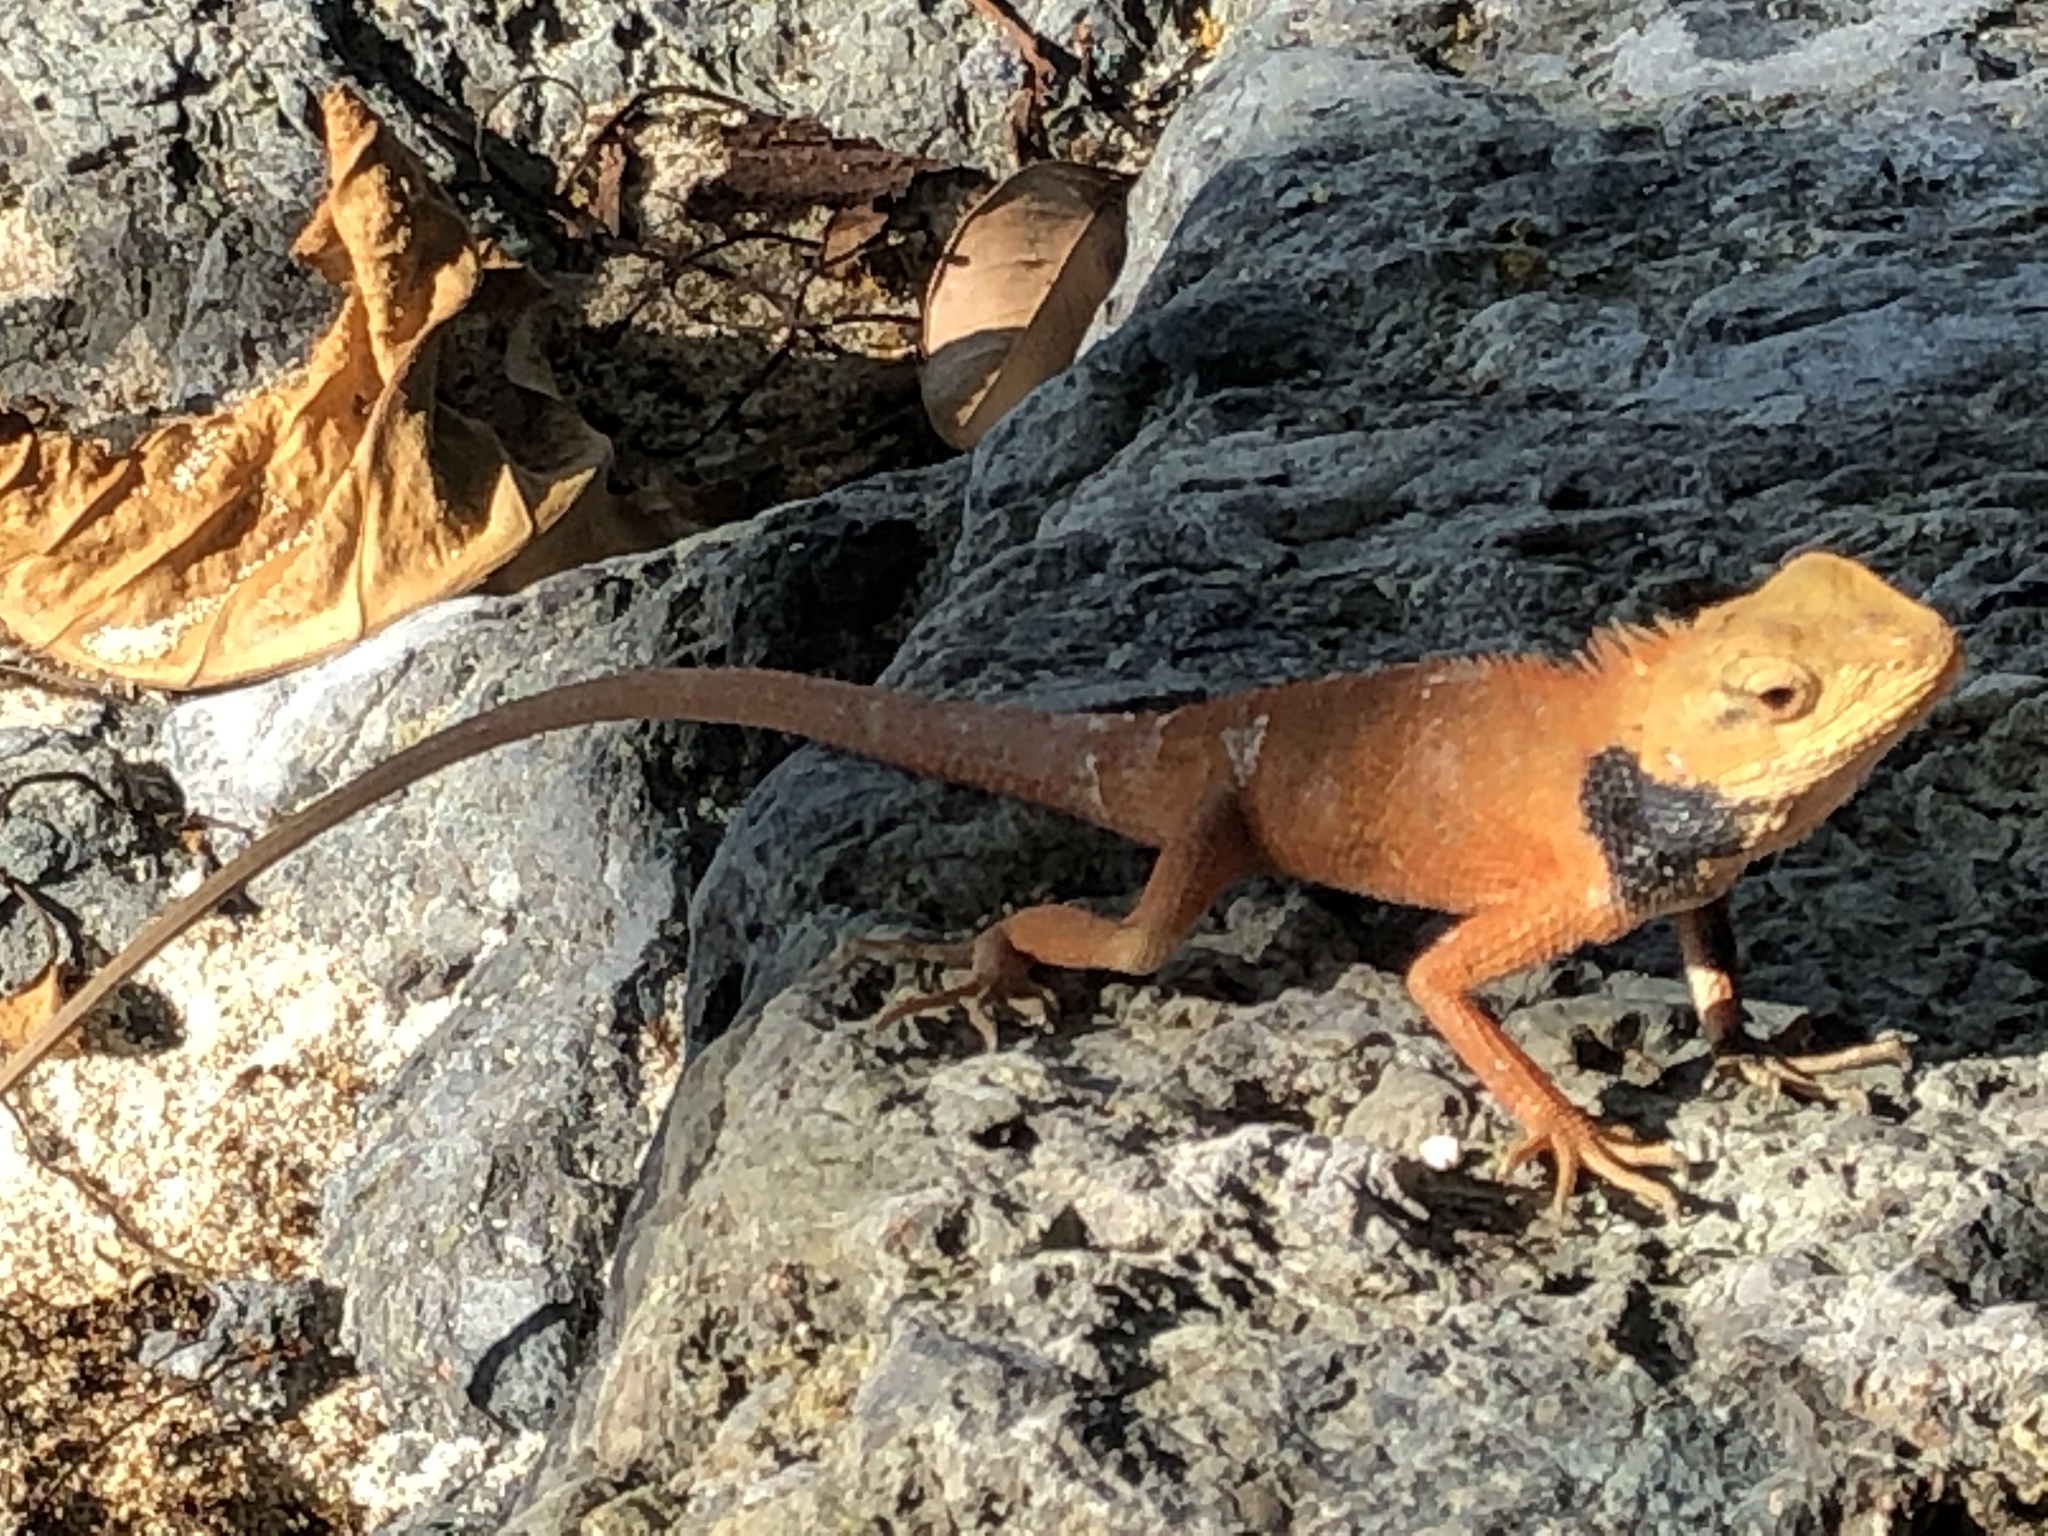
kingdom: Animalia
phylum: Chordata
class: Squamata
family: Agamidae
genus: Calotes
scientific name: Calotes versicolor
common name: Oriental garden lizard
